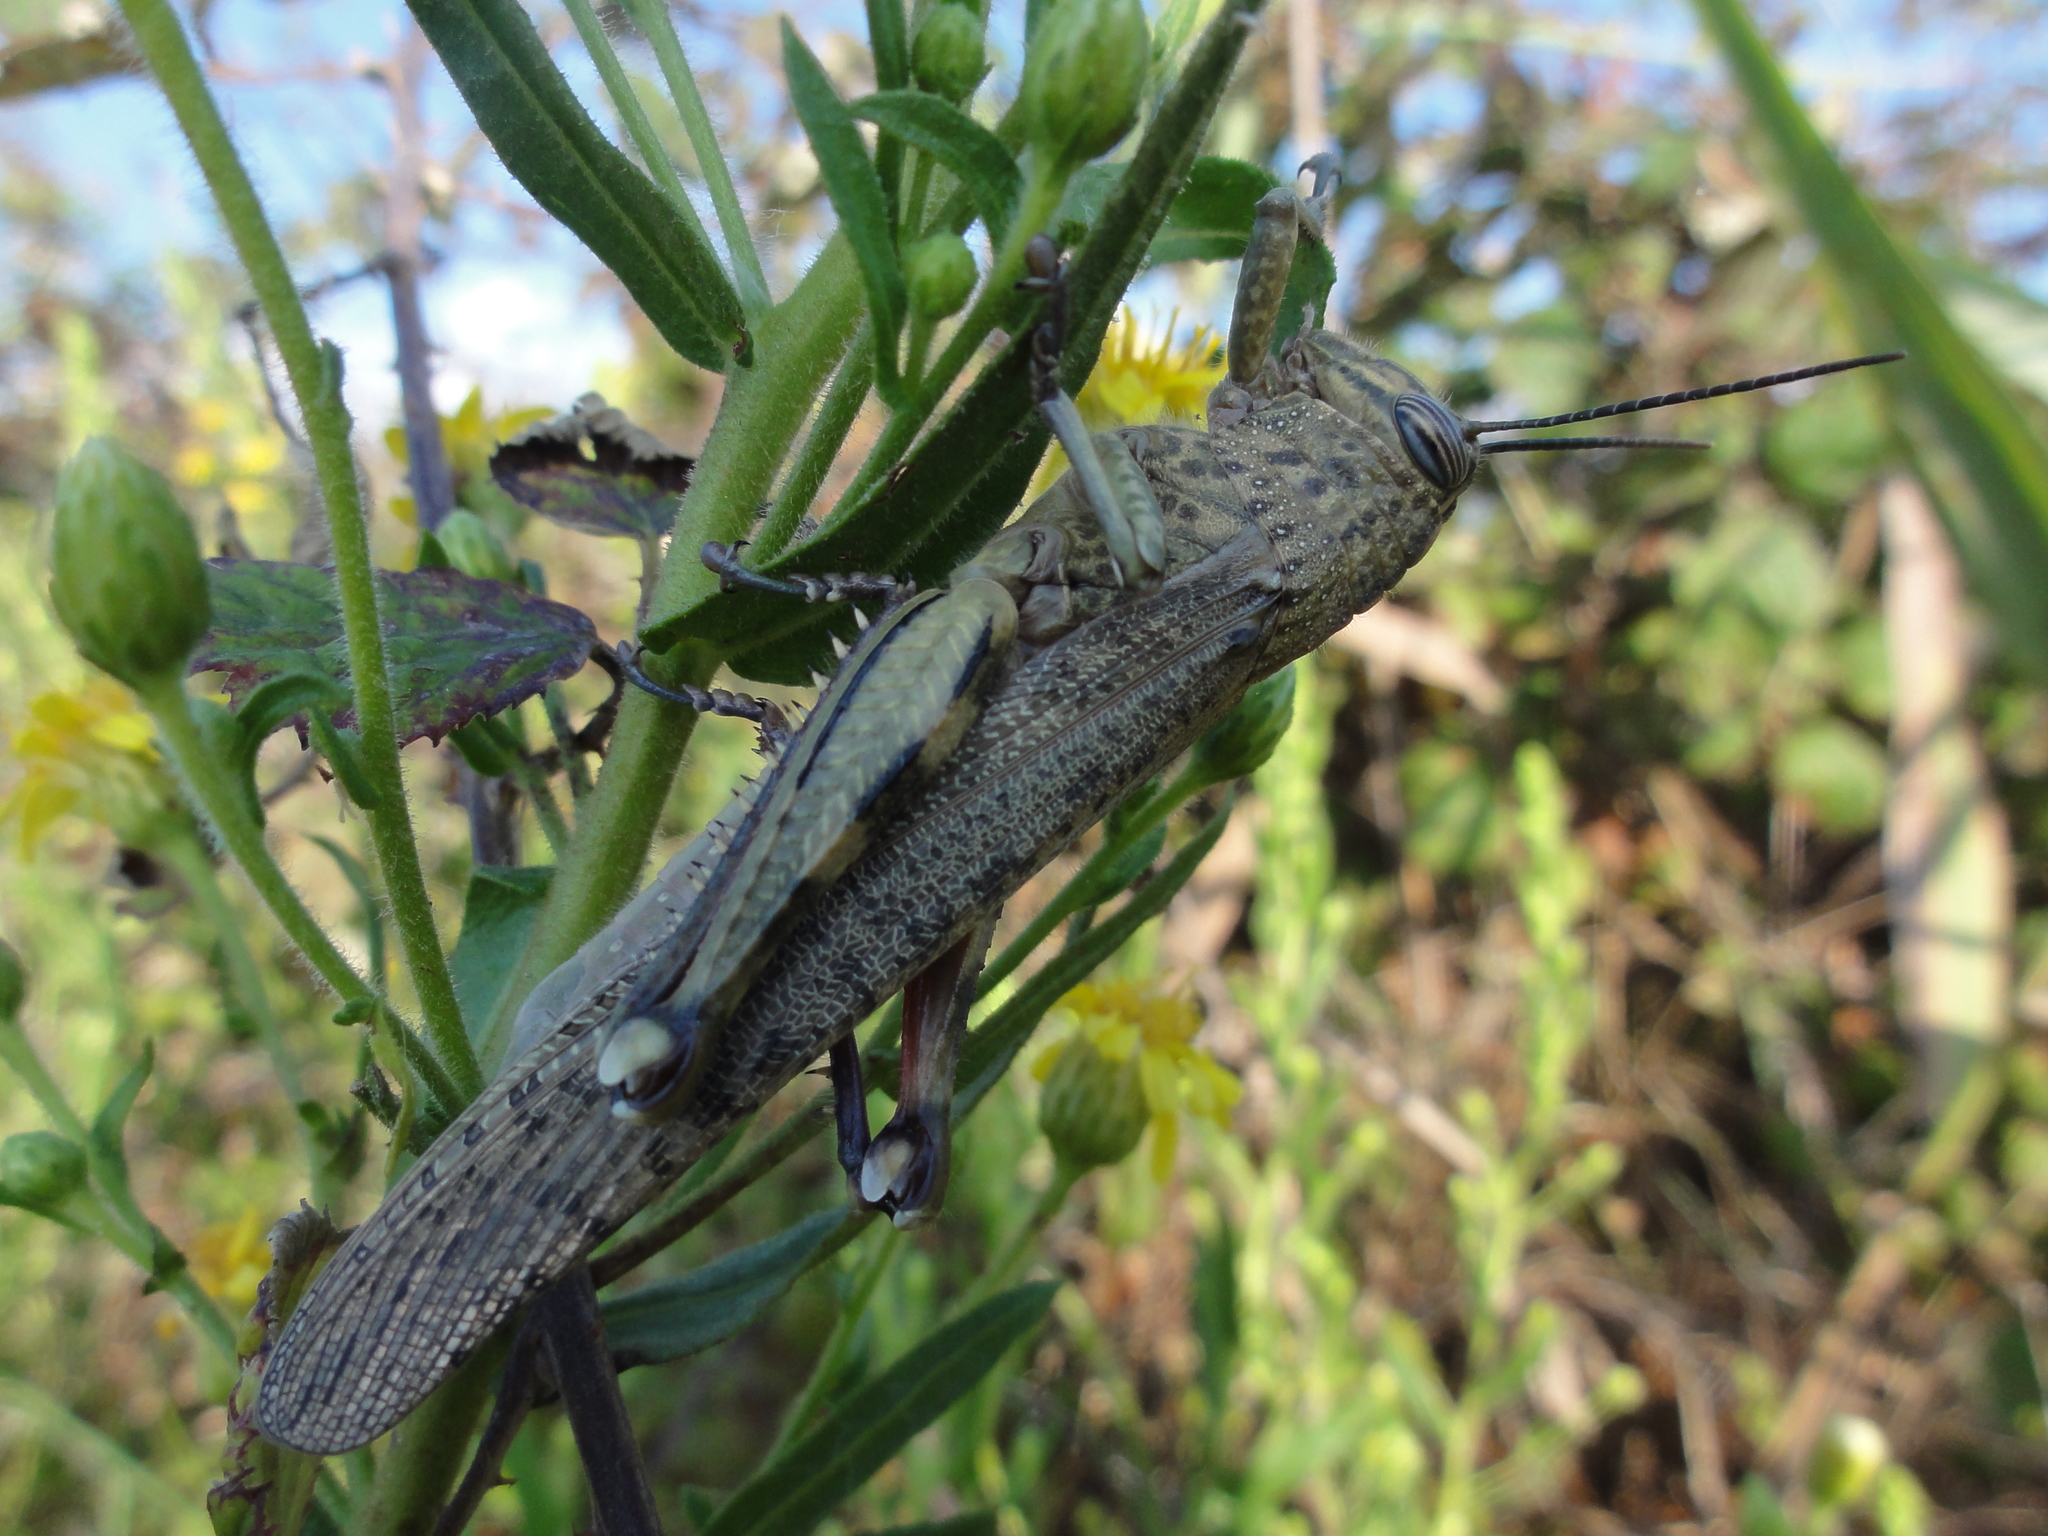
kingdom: Animalia
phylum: Arthropoda
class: Insecta
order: Orthoptera
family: Acrididae
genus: Anacridium
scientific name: Anacridium aegyptium
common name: Egyptian grasshopper
